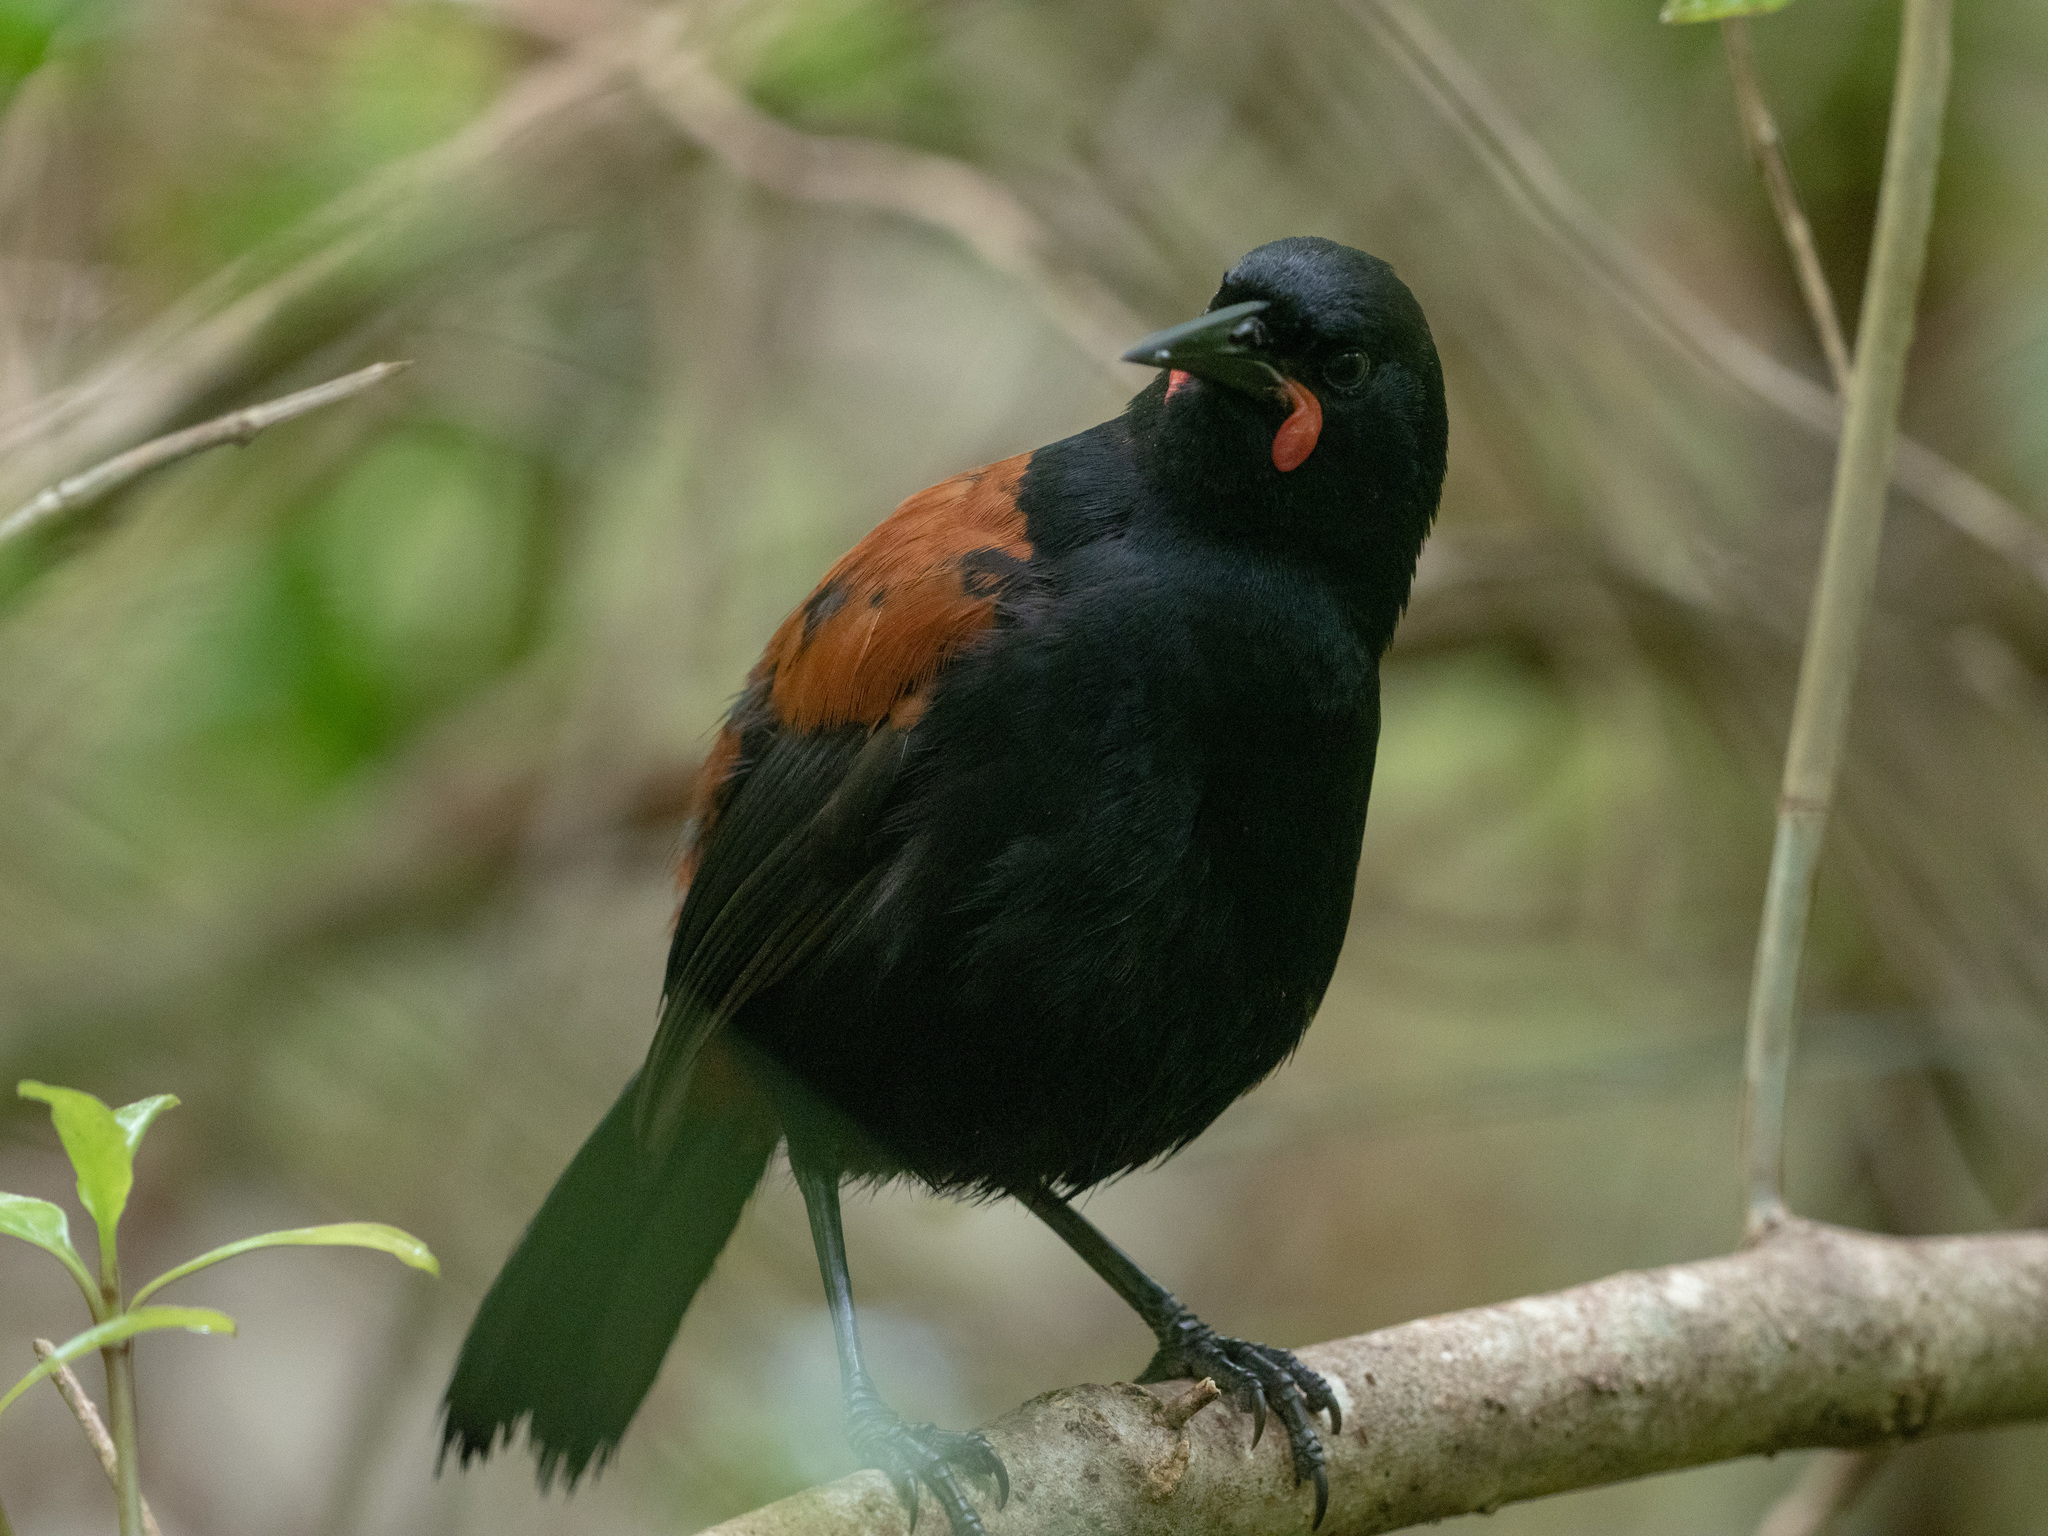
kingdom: Animalia
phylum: Chordata
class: Aves
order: Passeriformes
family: Callaeatidae
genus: Philesturnus
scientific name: Philesturnus carunculatus
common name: South island saddleback
